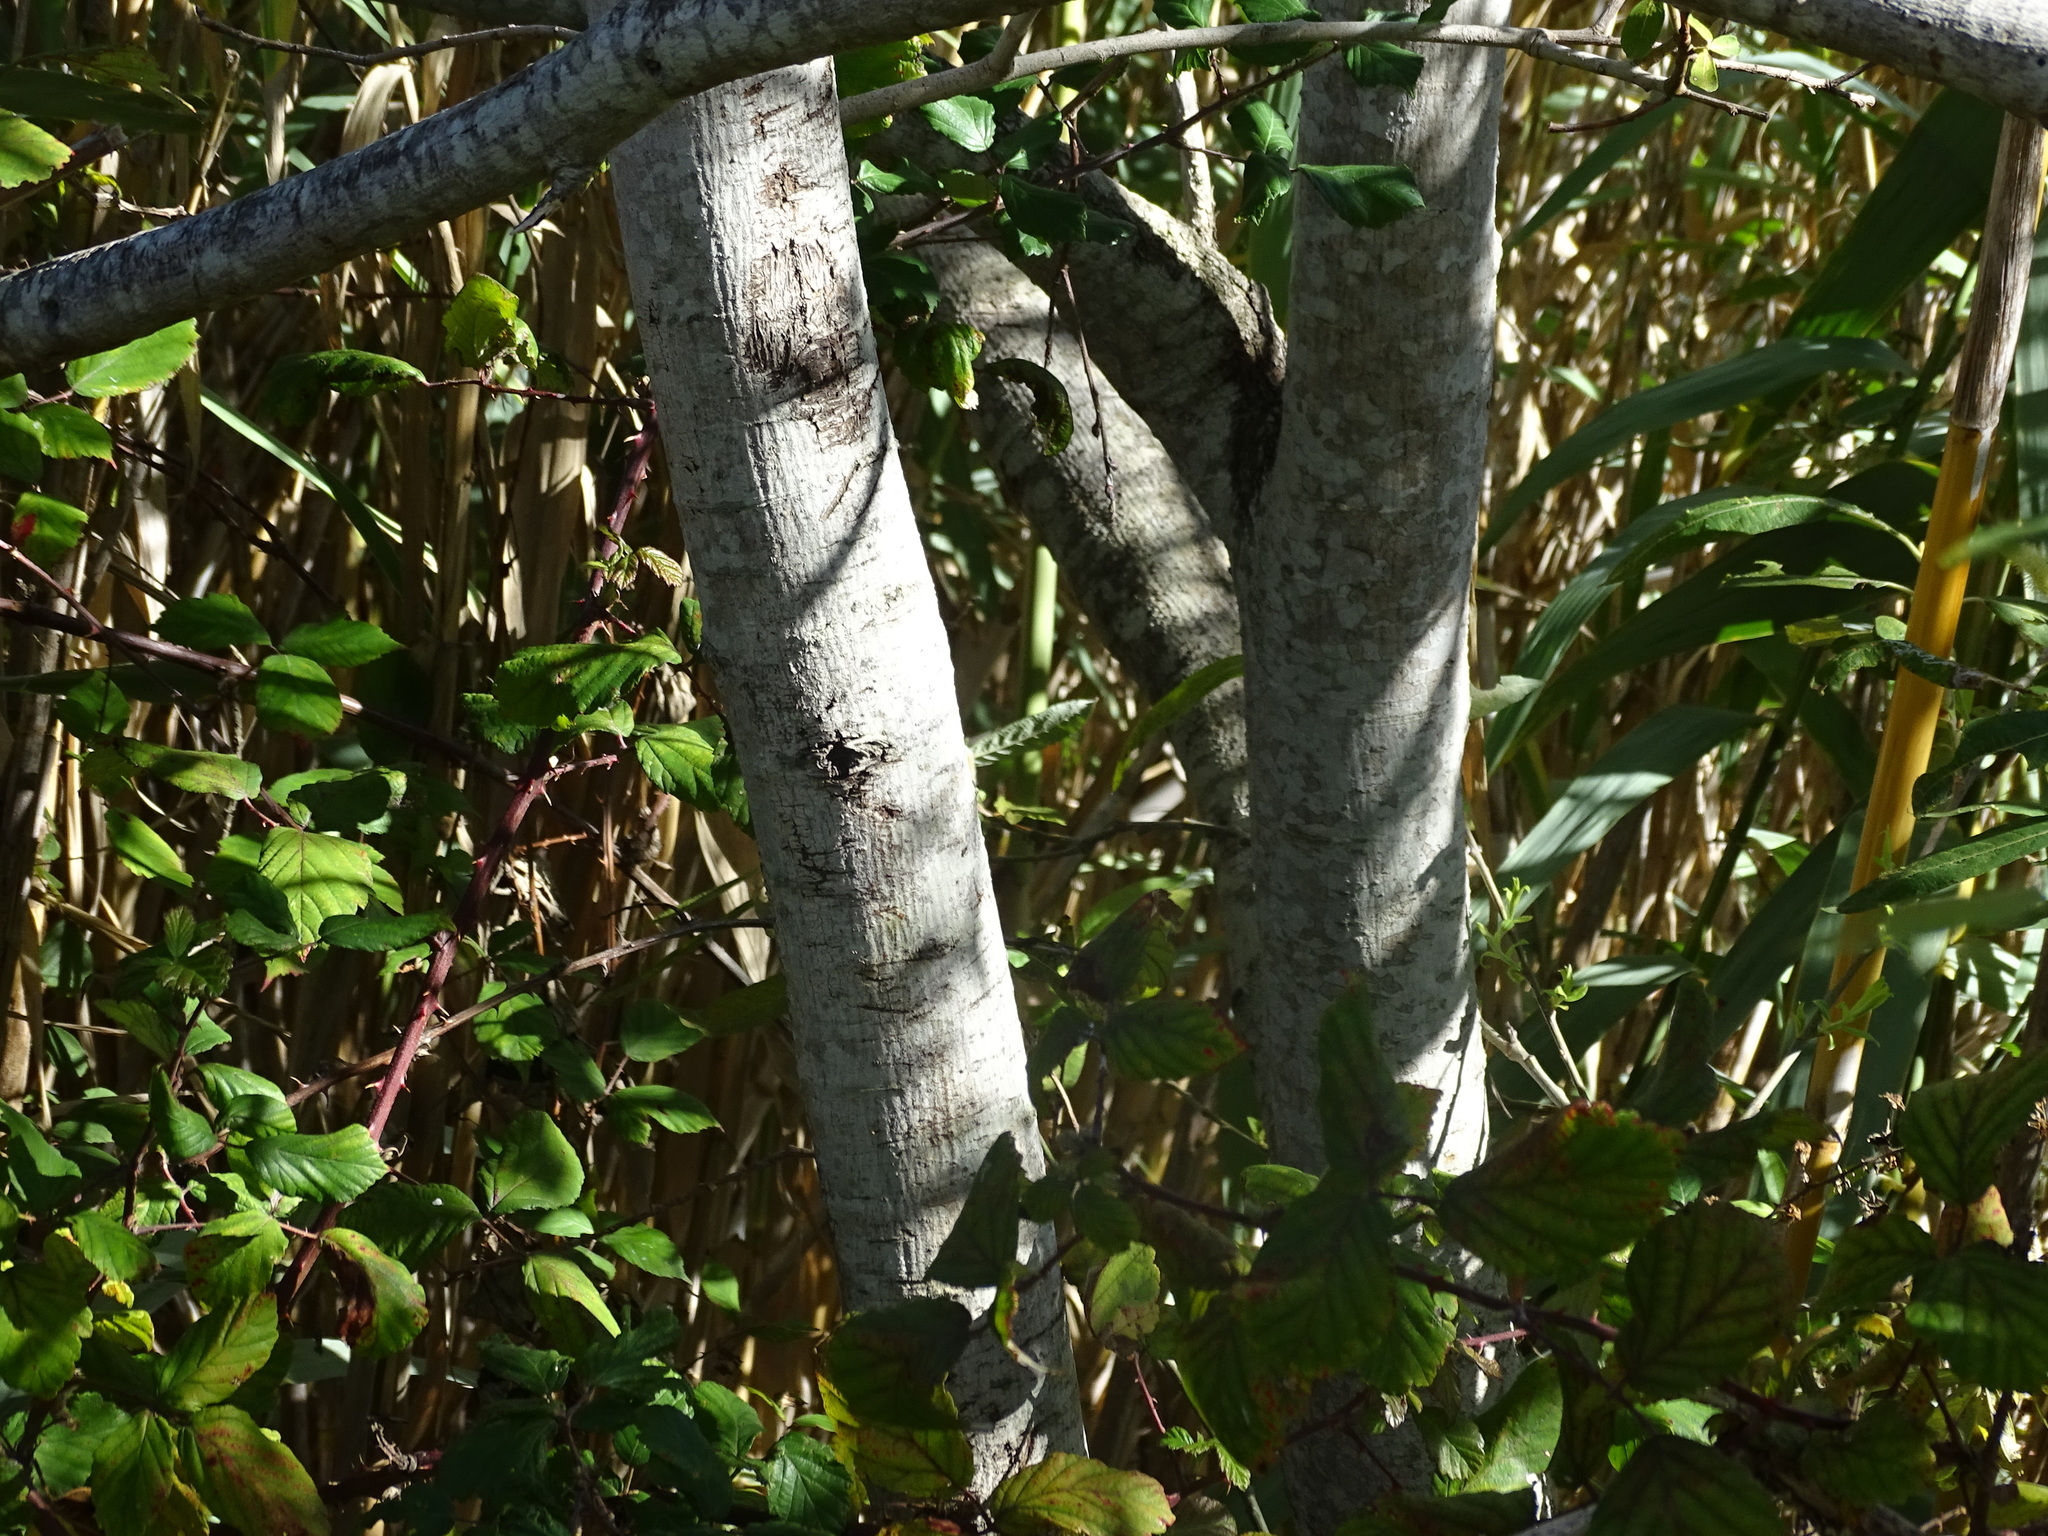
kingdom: Plantae
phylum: Tracheophyta
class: Magnoliopsida
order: Malpighiales
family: Salicaceae
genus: Salix
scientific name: Salix canariensis
